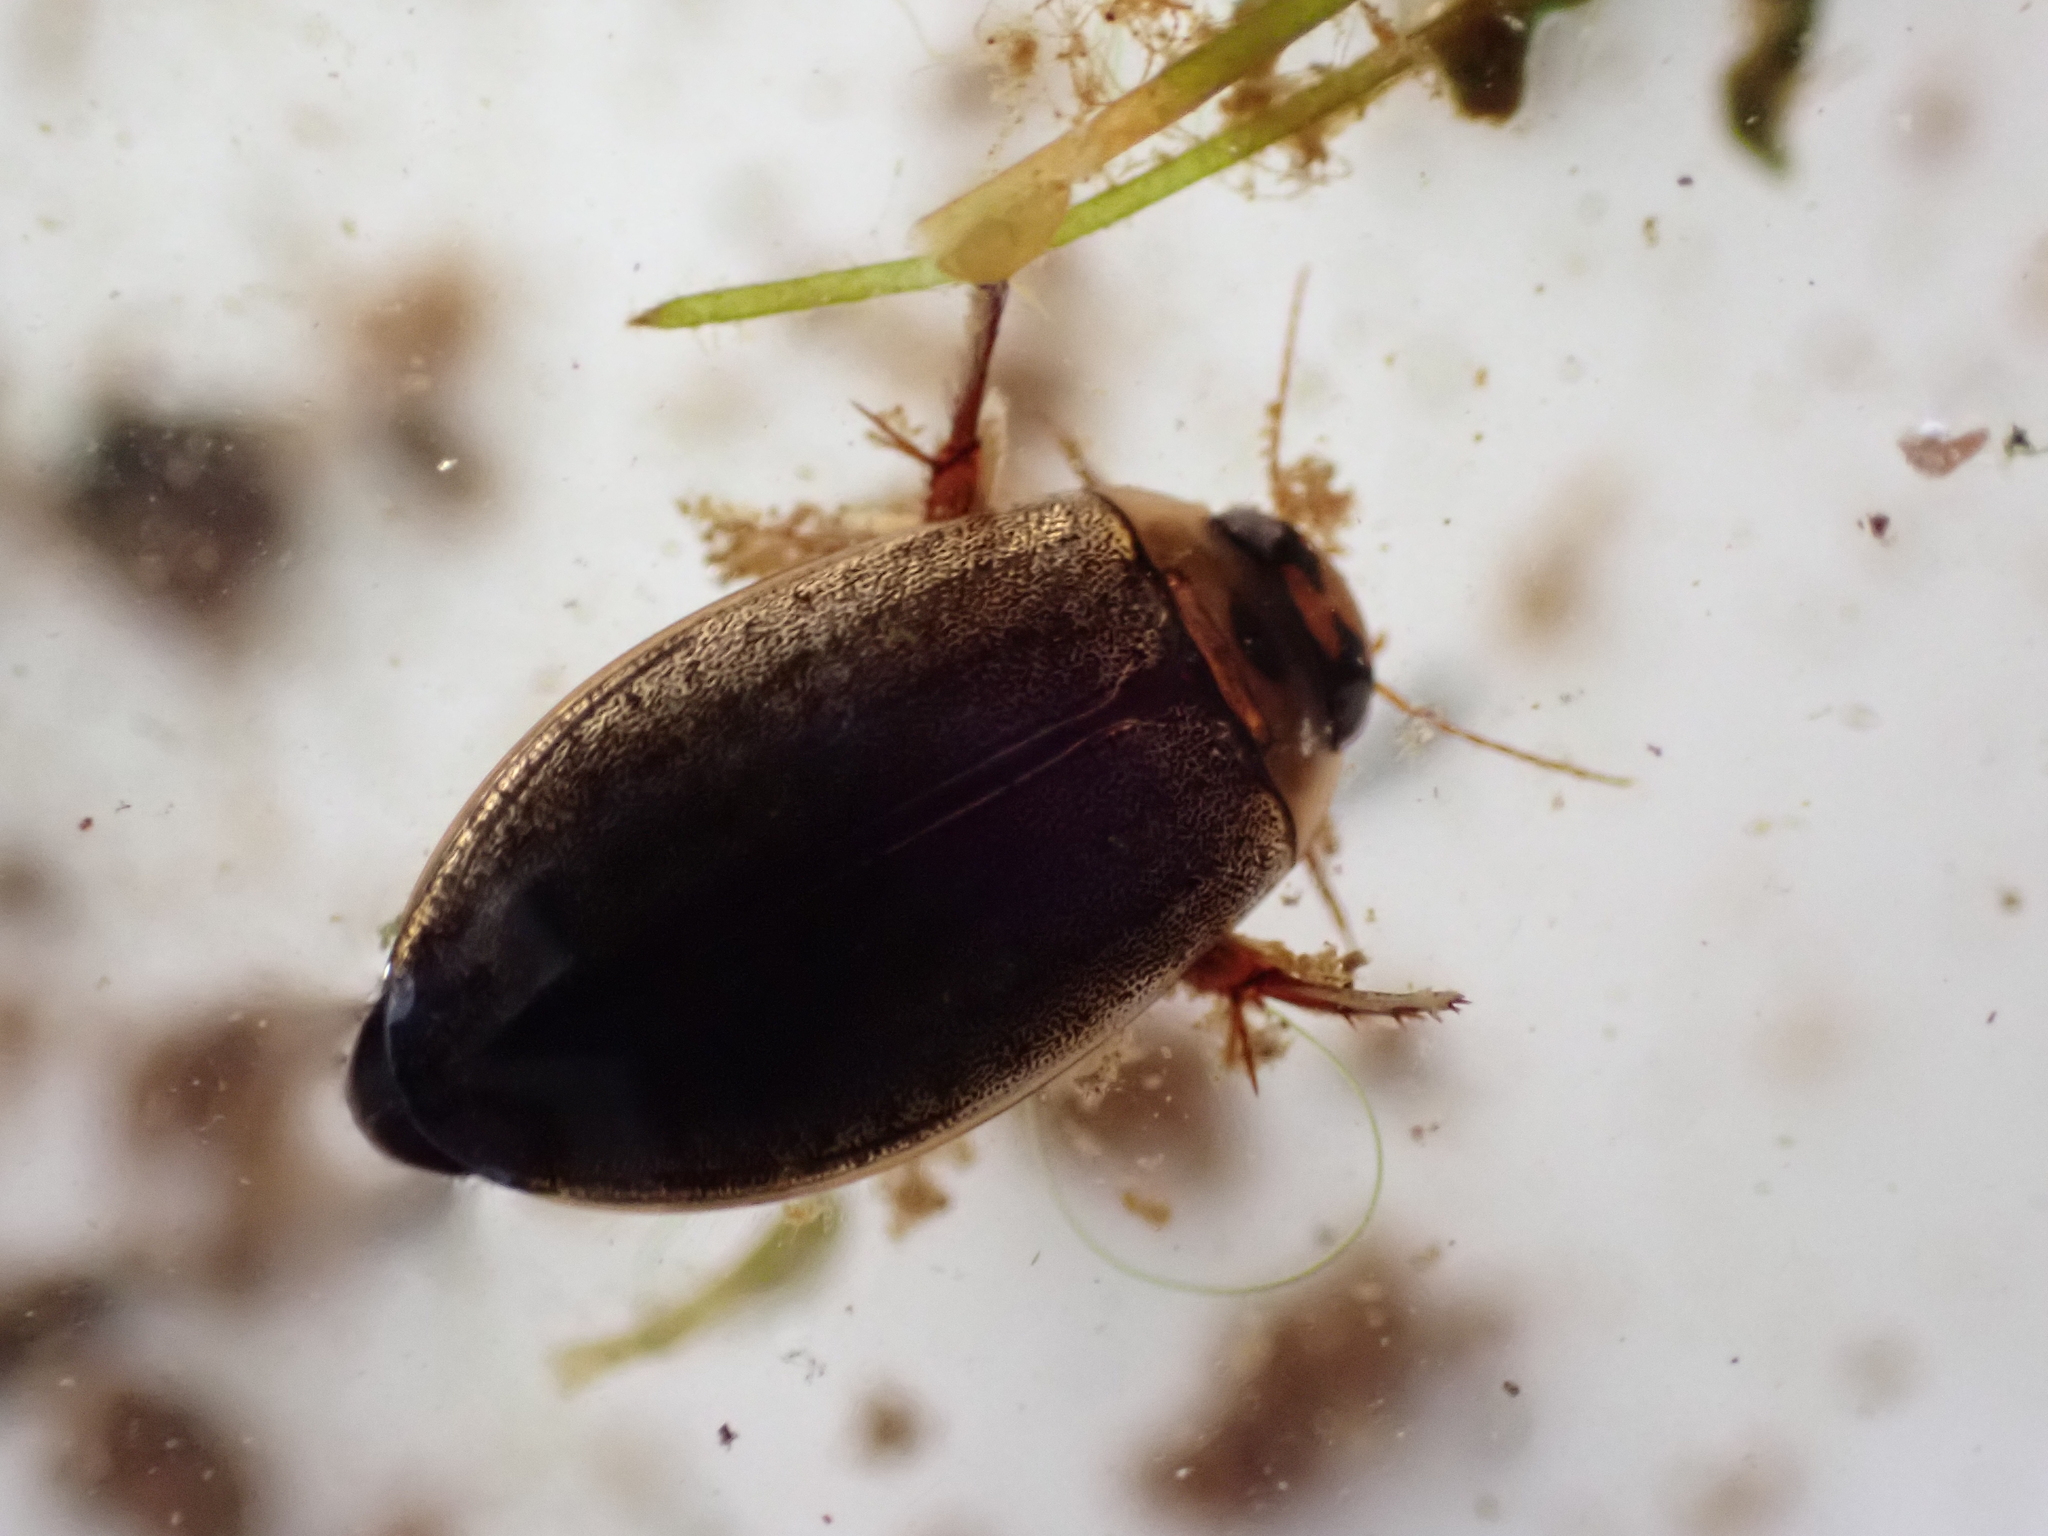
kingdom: Animalia
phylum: Arthropoda
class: Insecta
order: Coleoptera
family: Dytiscidae
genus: Rhantus
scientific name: Rhantus suturalis
